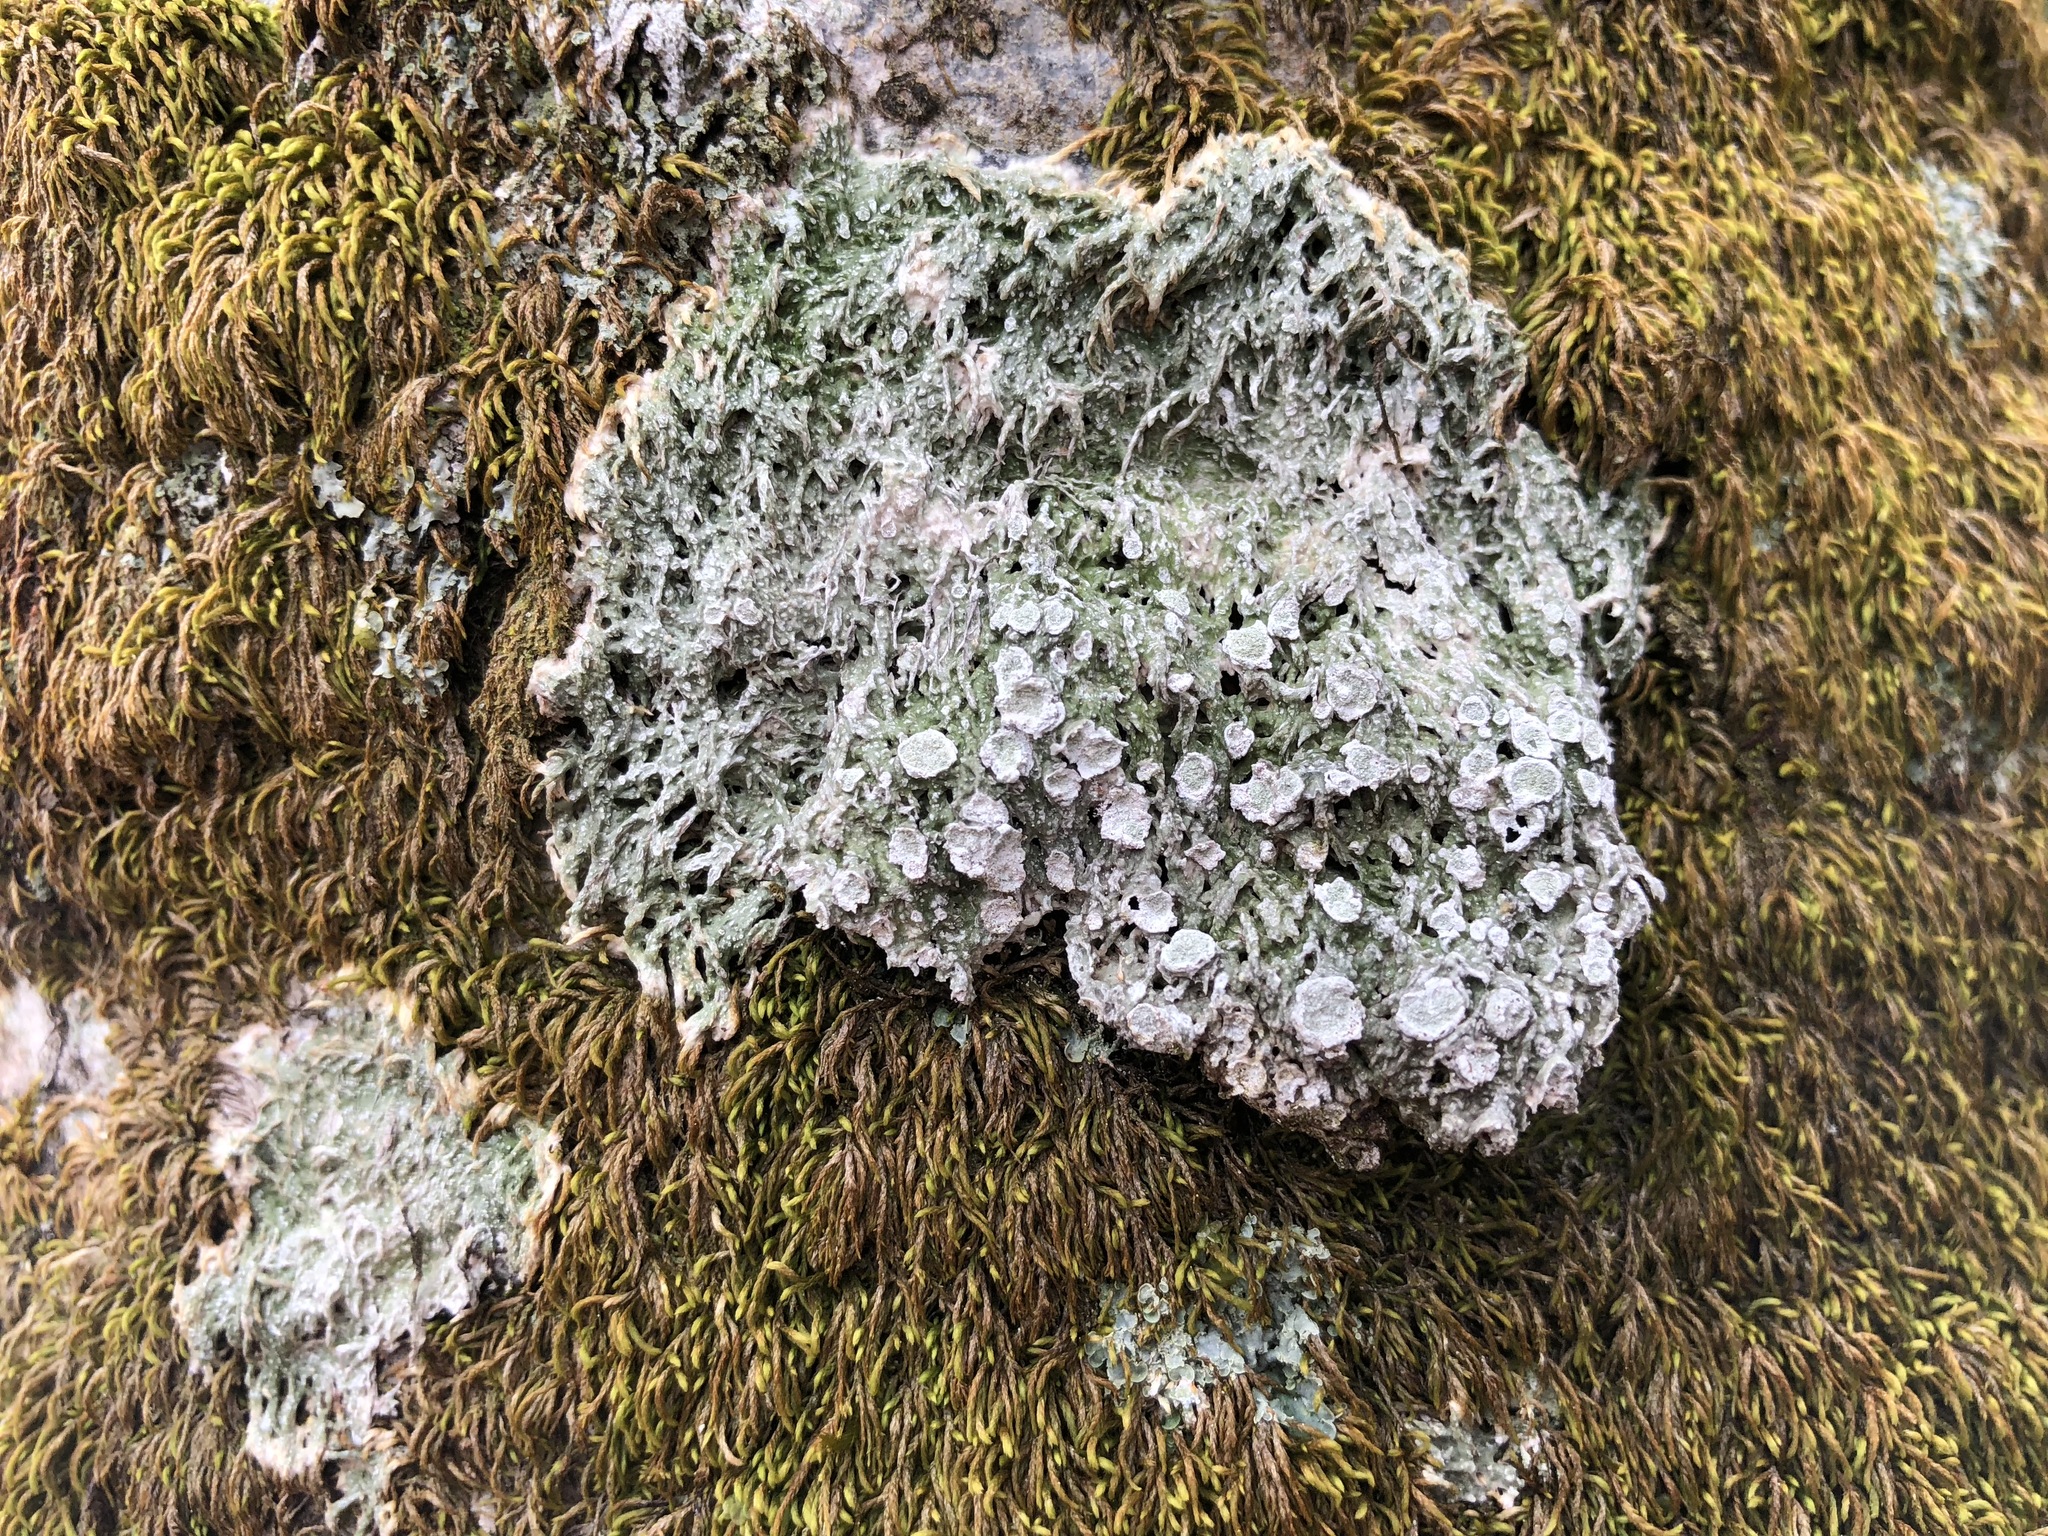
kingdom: Fungi
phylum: Ascomycota
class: Lecanoromycetes
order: Pertusariales
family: Pertusariaceae
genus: Lepra
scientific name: Lepra albescens
